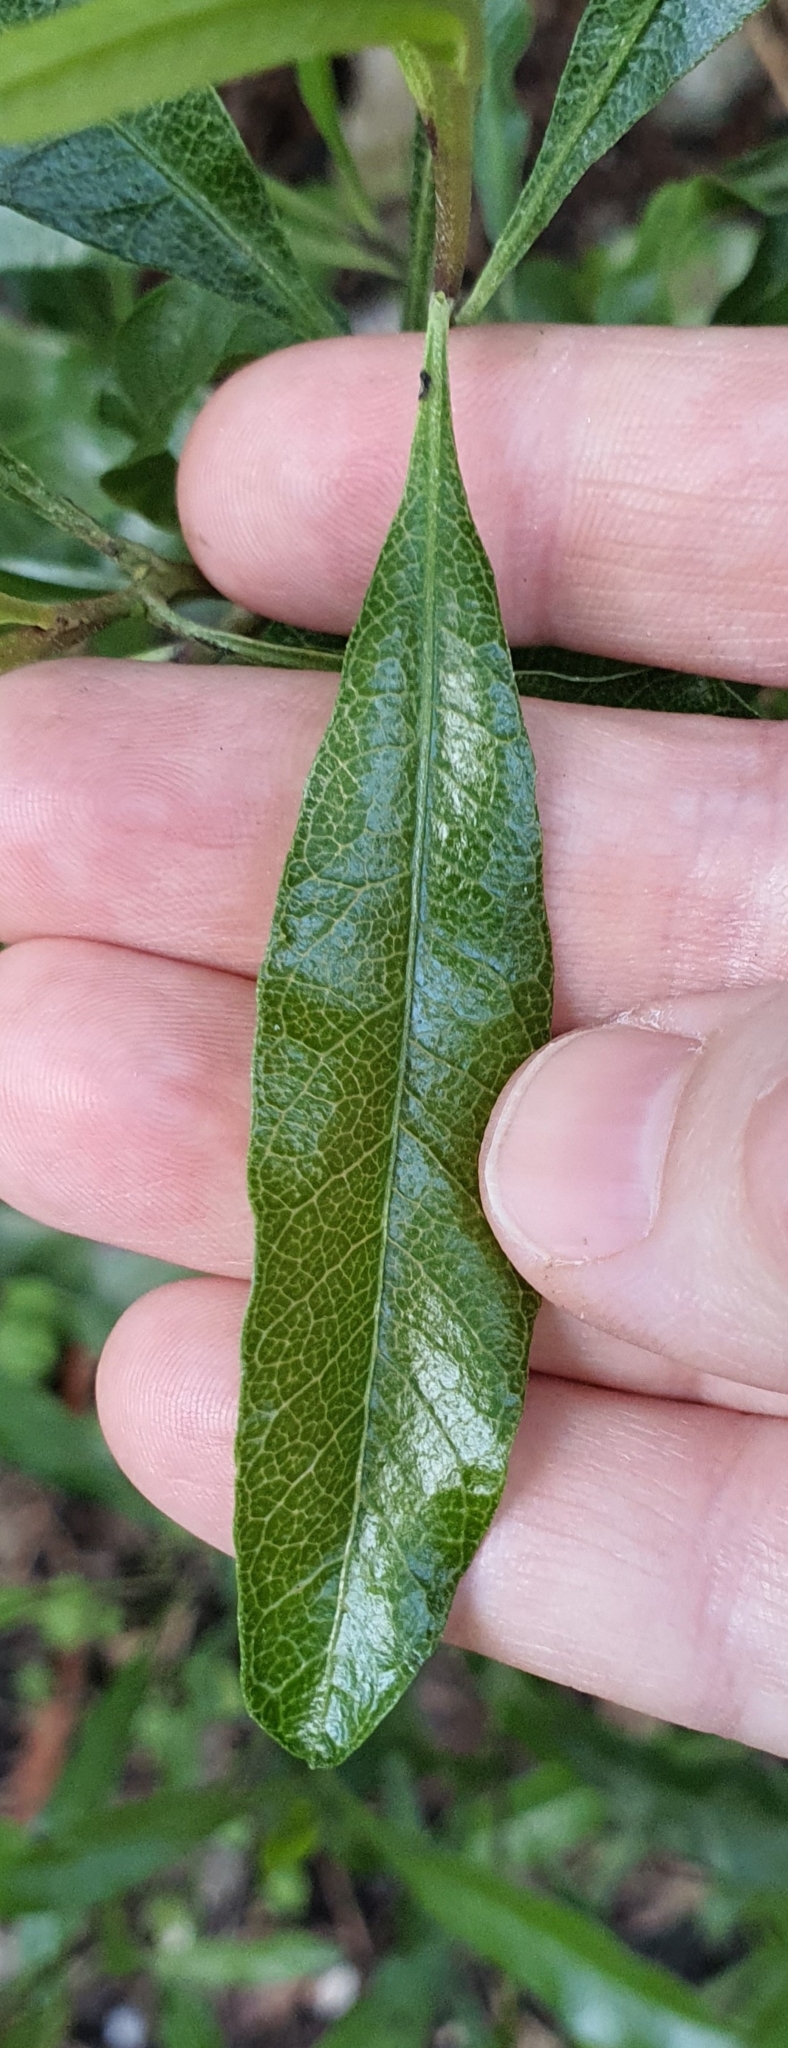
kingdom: Plantae
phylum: Tracheophyta
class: Magnoliopsida
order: Sapindales
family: Sapindaceae
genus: Dodonaea
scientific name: Dodonaea viscosa
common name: Hopbush
